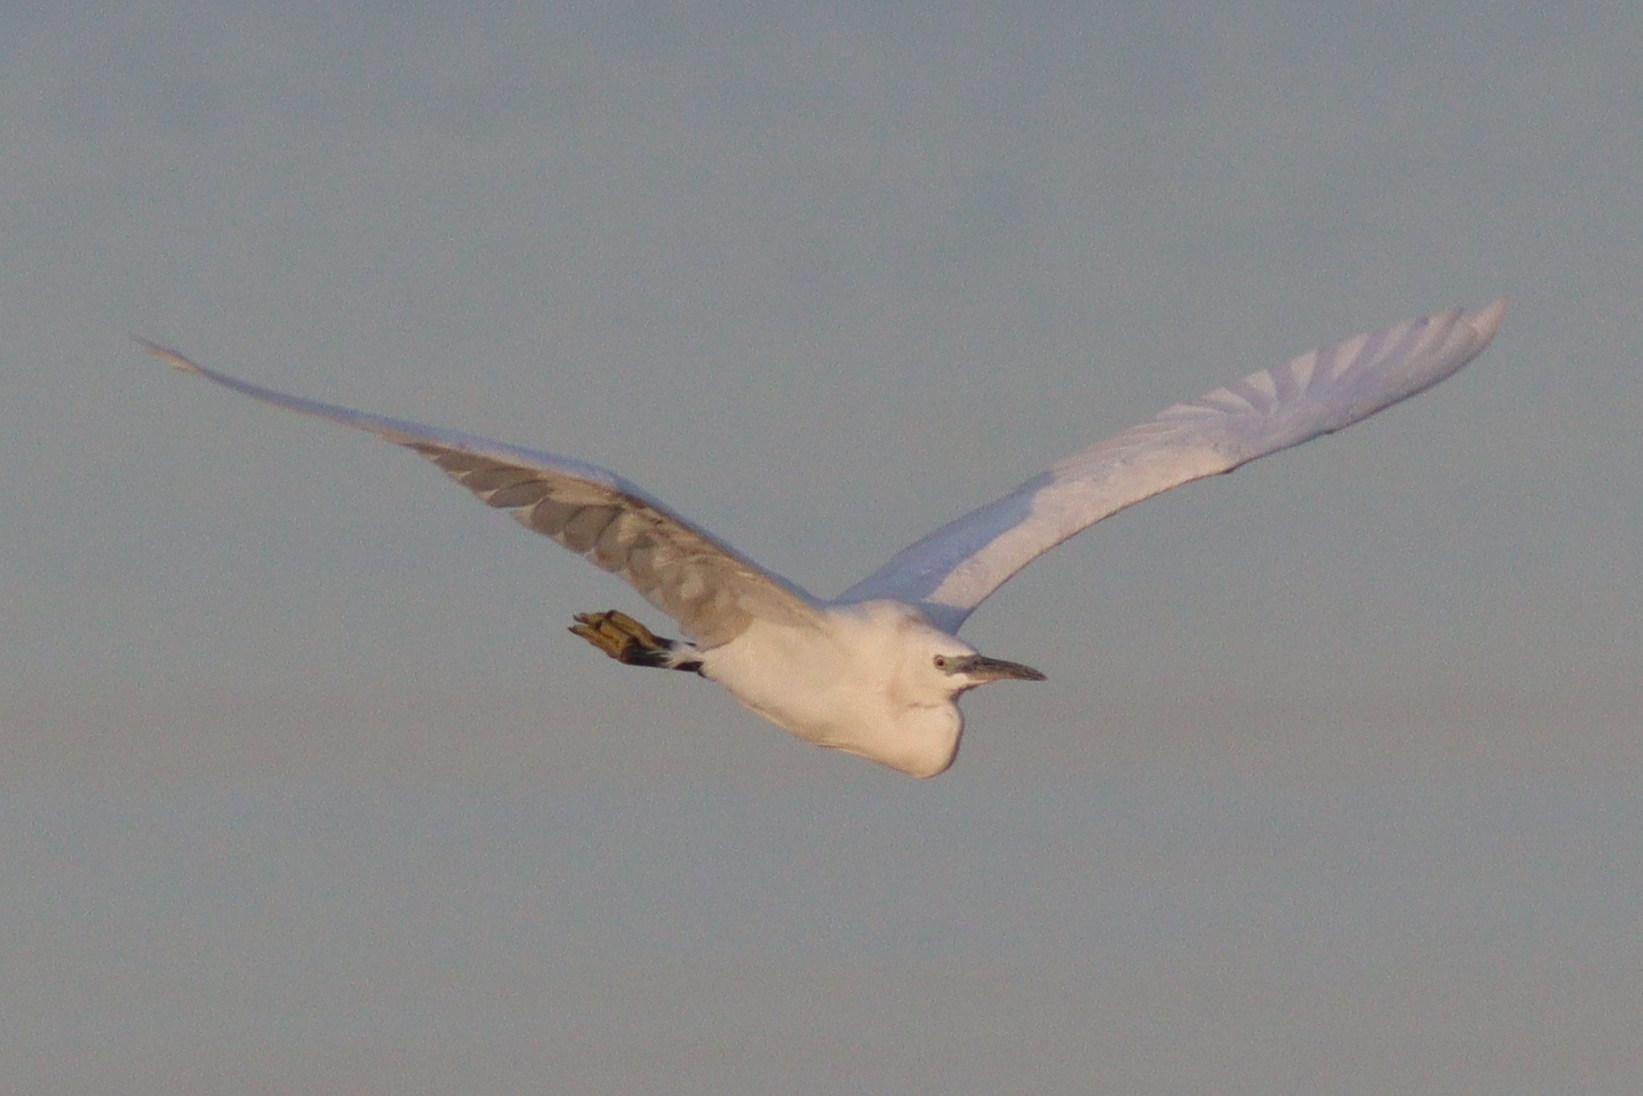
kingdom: Animalia
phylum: Chordata
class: Aves
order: Pelecaniformes
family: Ardeidae
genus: Egretta
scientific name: Egretta garzetta
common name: Little egret
